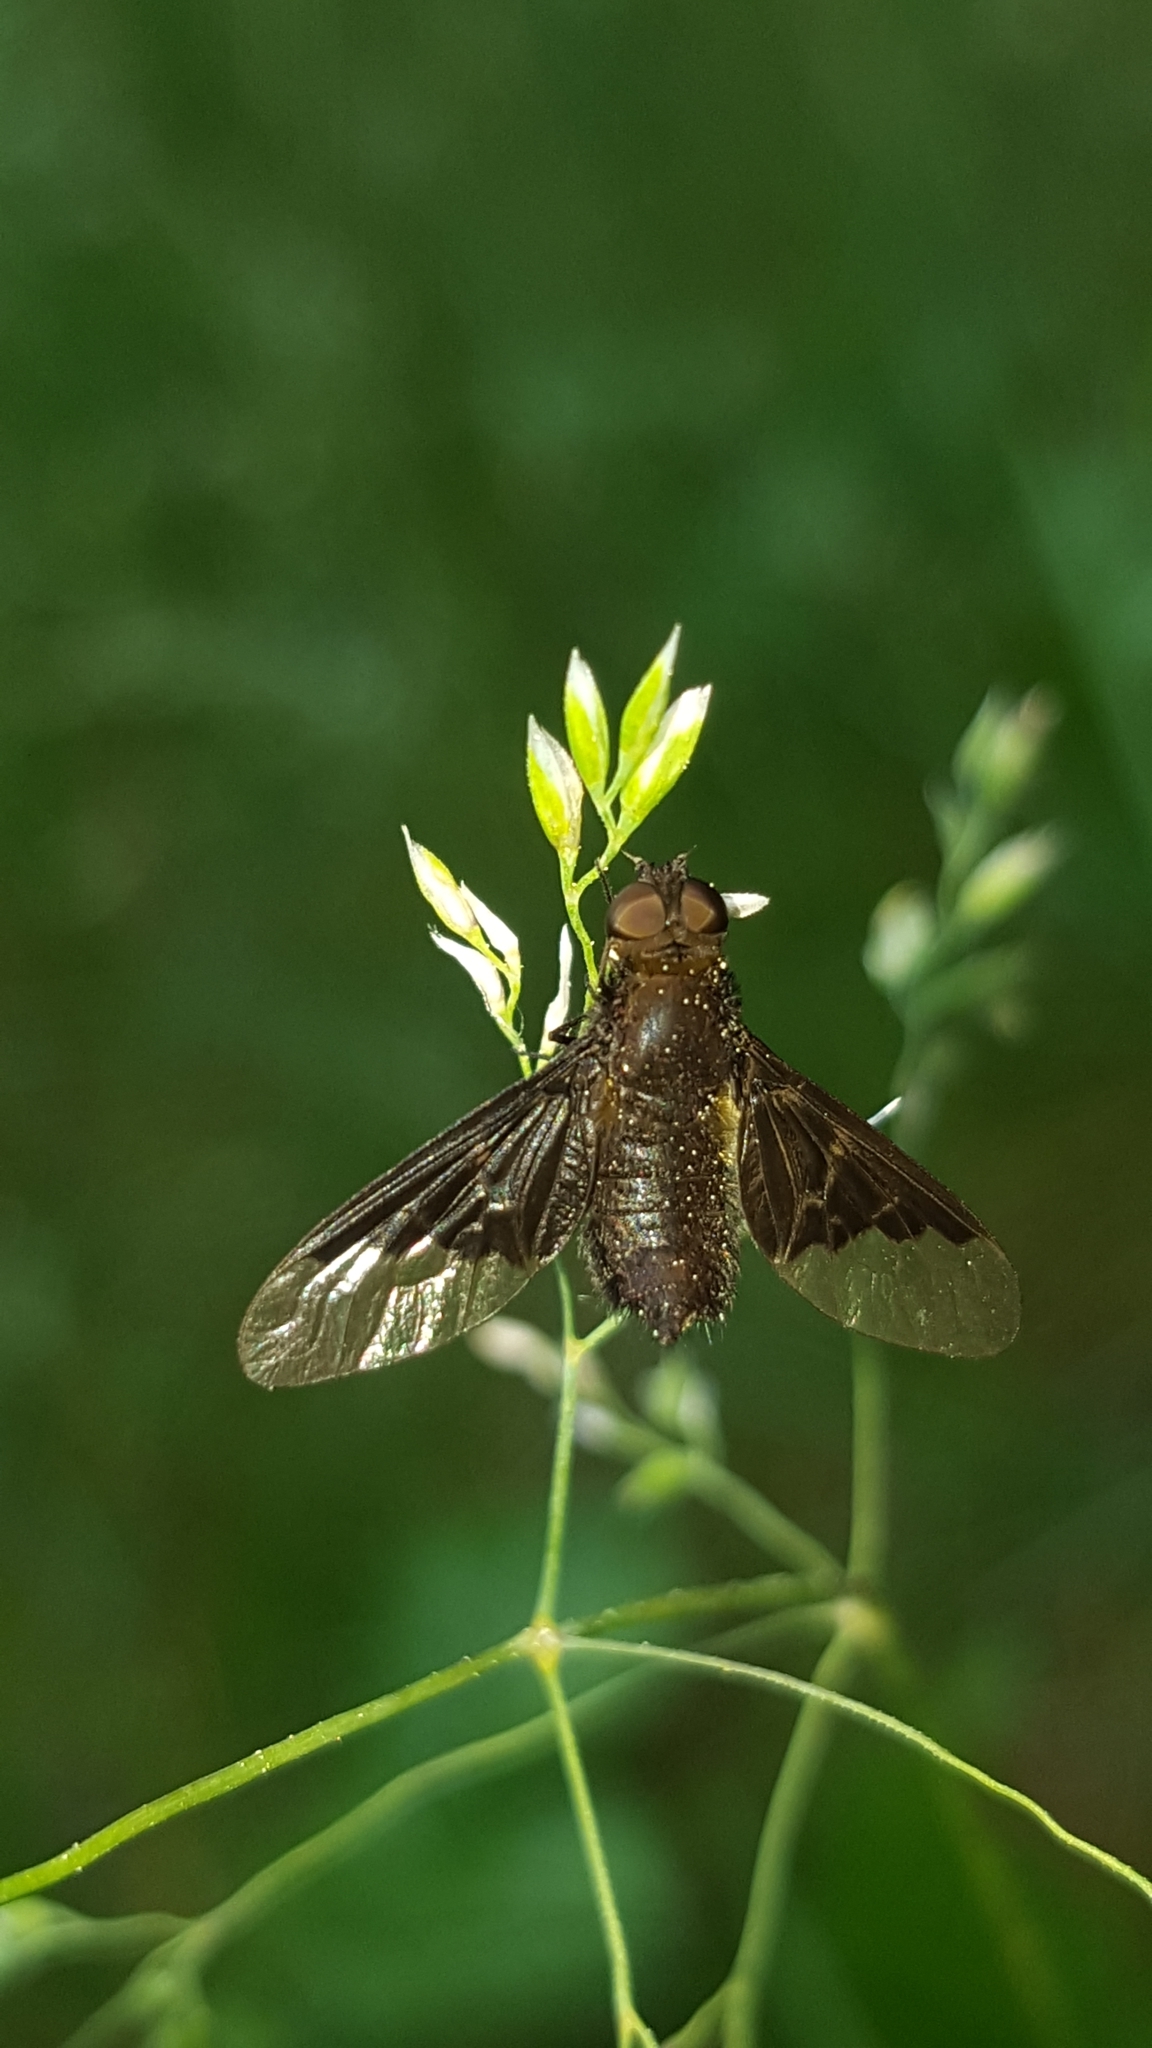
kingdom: Animalia
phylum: Arthropoda
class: Insecta
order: Diptera
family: Bombyliidae
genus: Hemipenthes
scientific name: Hemipenthes morio
